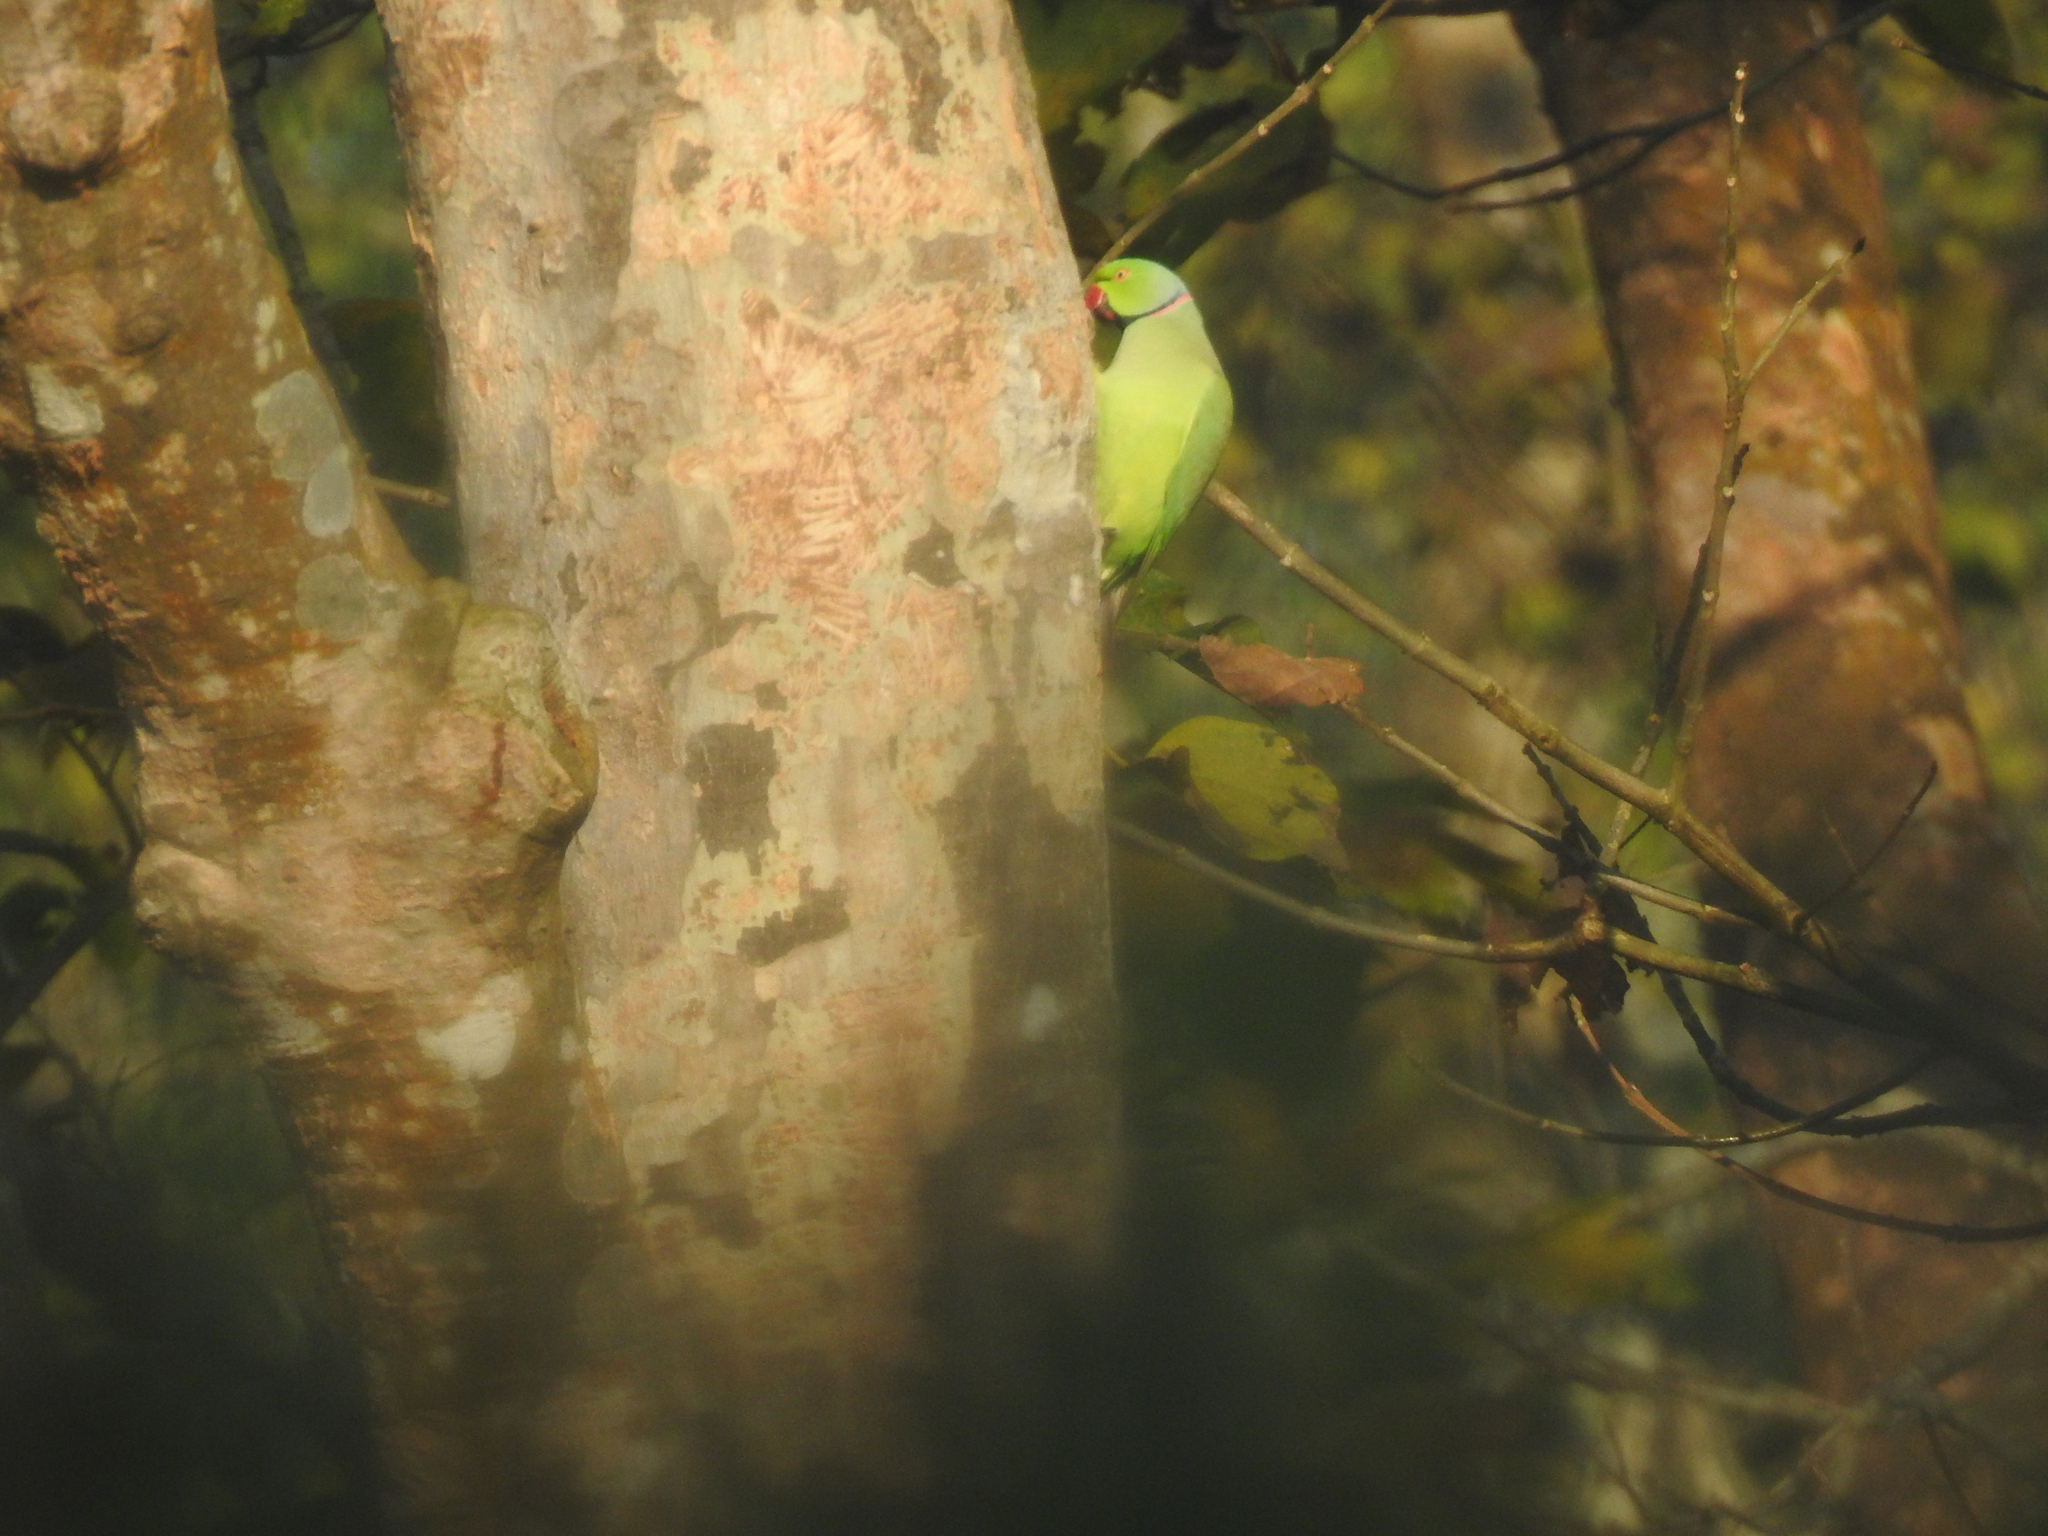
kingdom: Animalia
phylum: Chordata
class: Aves
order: Psittaciformes
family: Psittacidae
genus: Psittacula
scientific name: Psittacula krameri
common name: Rose-ringed parakeet
